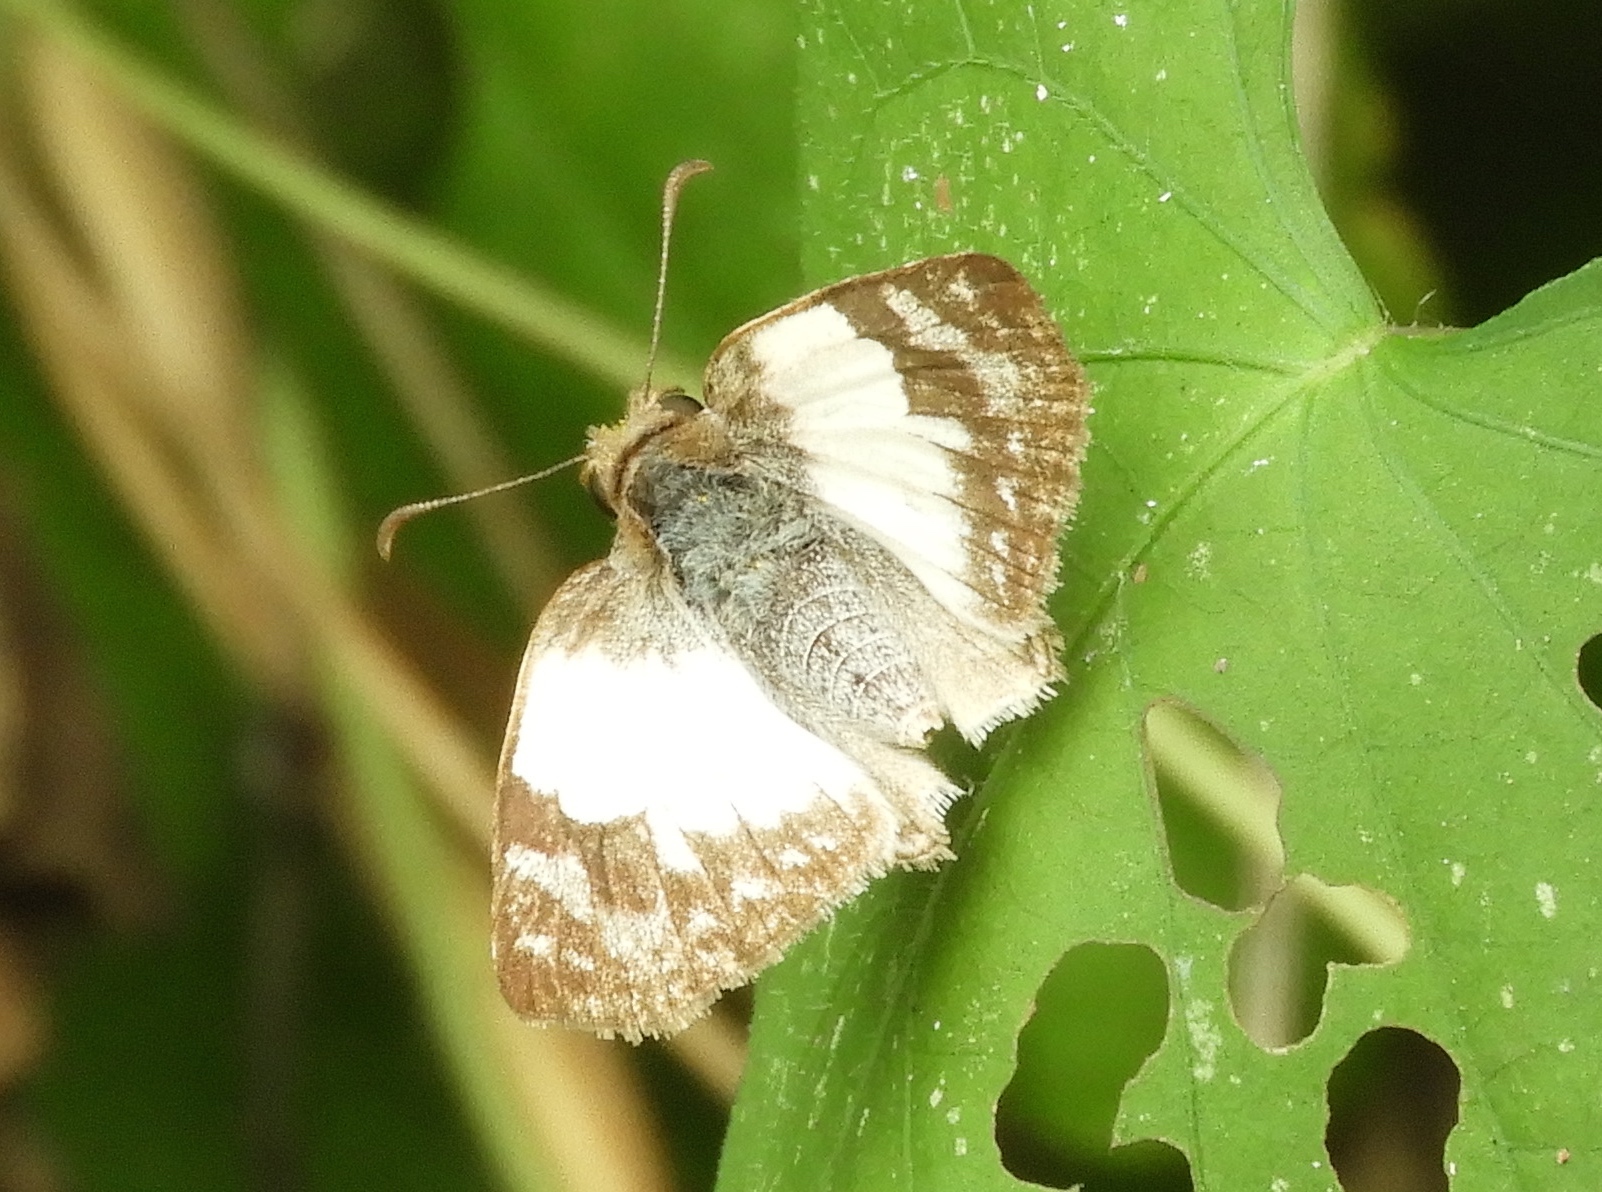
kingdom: Animalia
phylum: Arthropoda
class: Insecta
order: Lepidoptera
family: Hesperiidae
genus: Heliopetes
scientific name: Heliopetes laviana
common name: Laviana white-skipper
